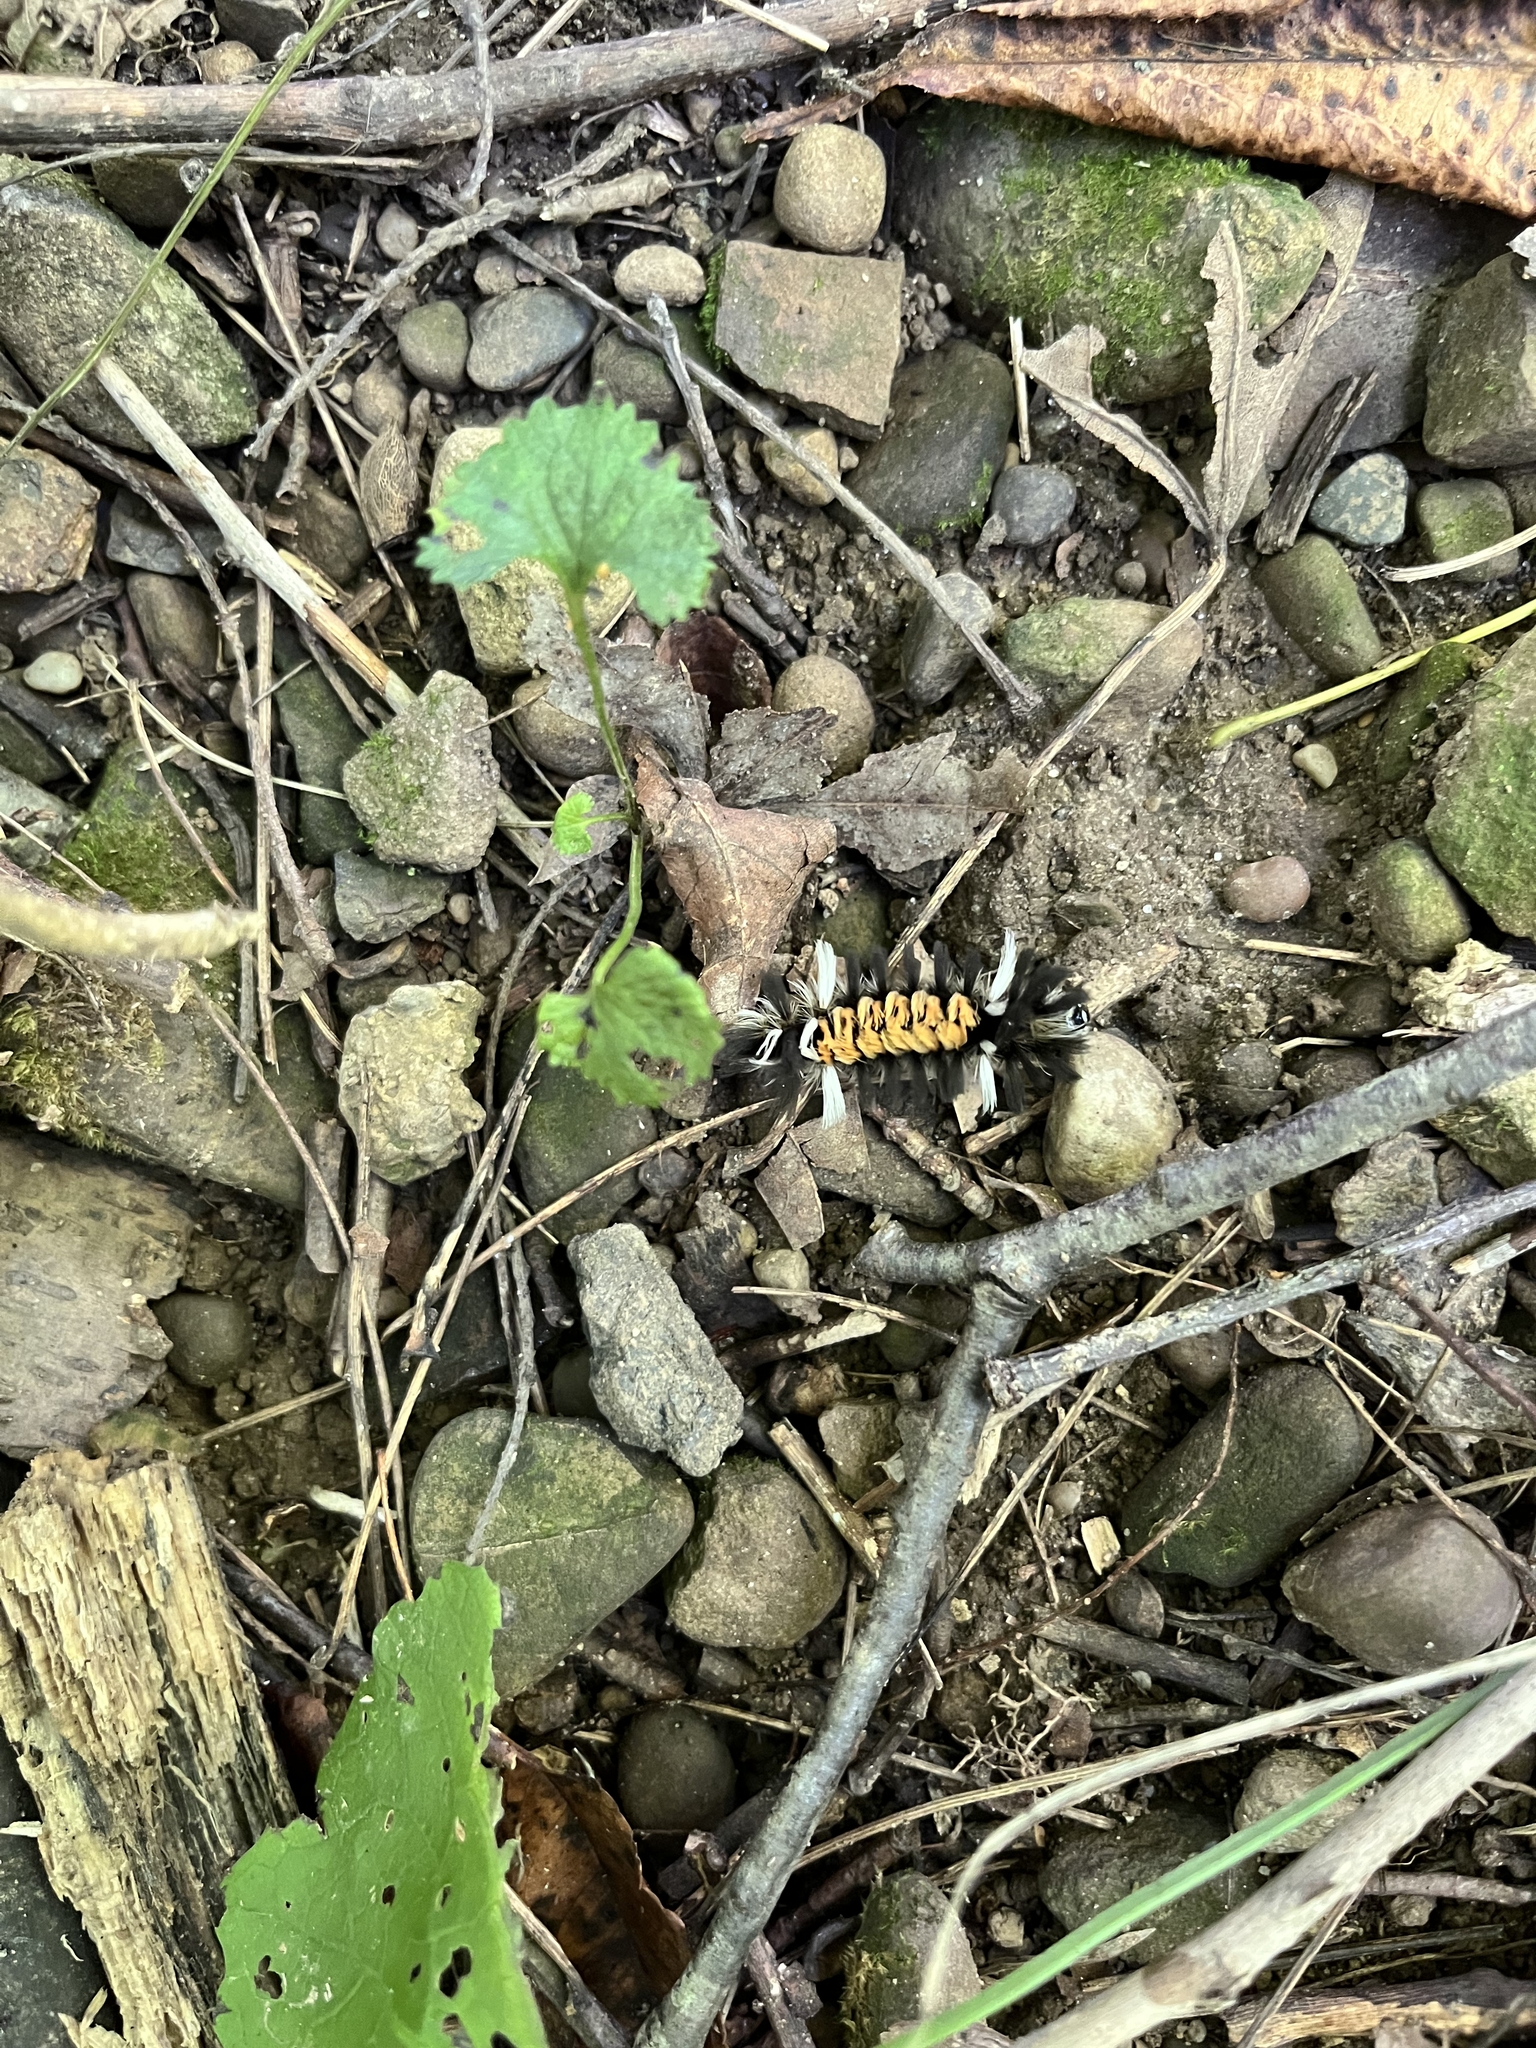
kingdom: Animalia
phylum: Arthropoda
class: Insecta
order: Lepidoptera
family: Erebidae
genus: Euchaetes
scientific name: Euchaetes egle
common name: Milkweed tussock moth
